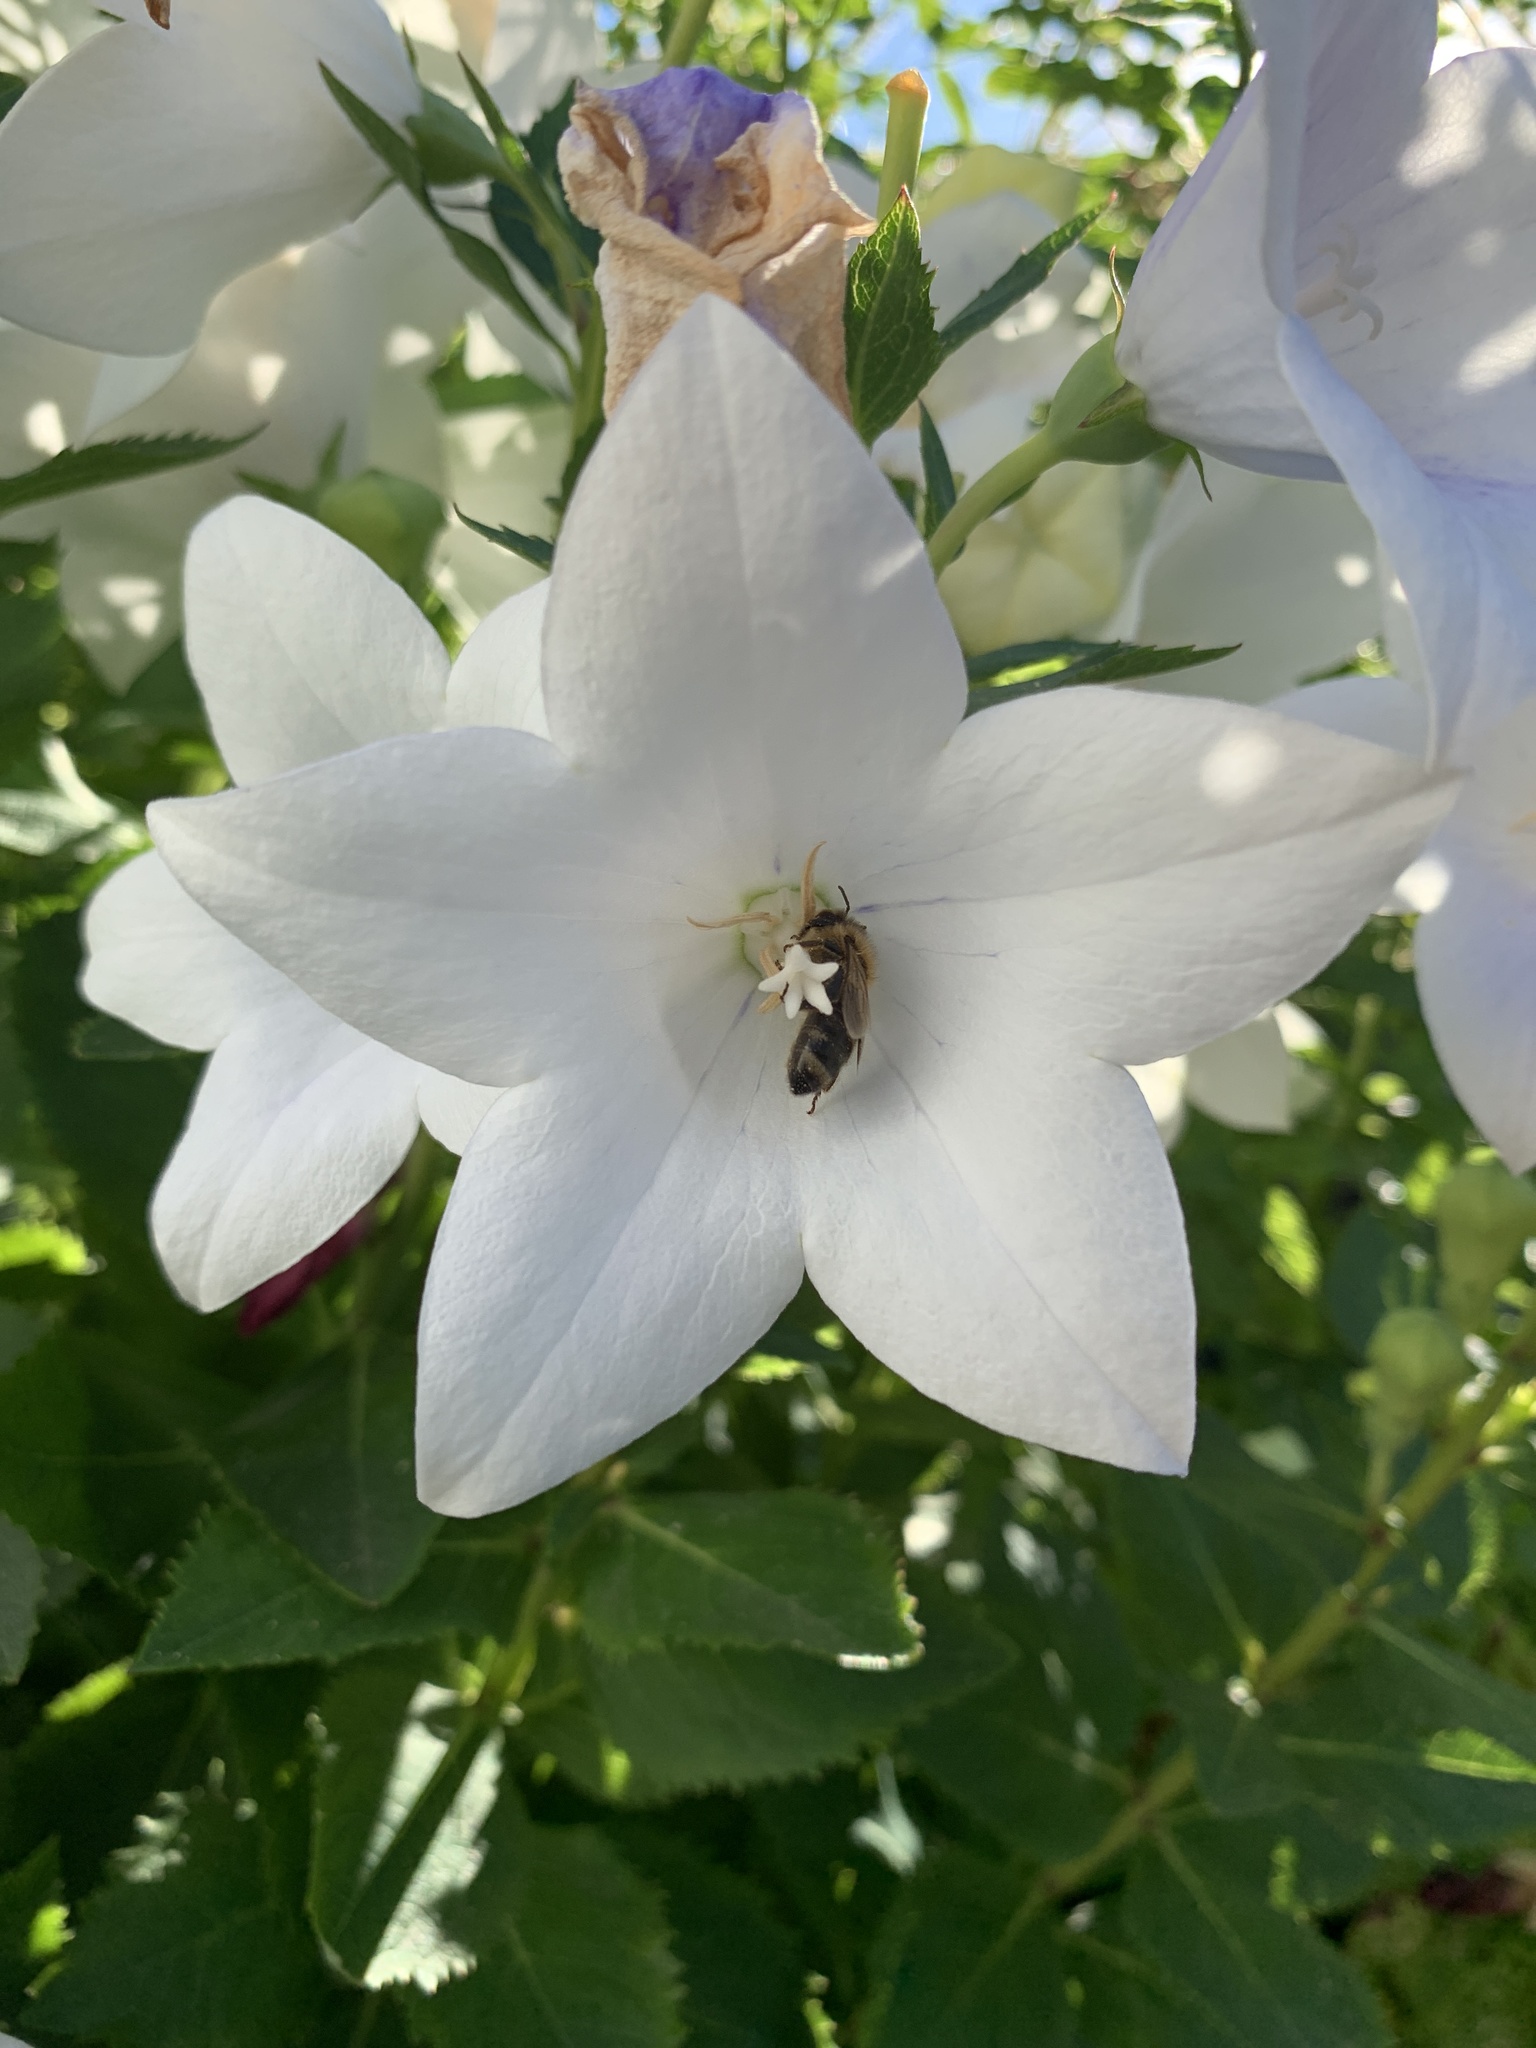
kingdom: Animalia
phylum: Arthropoda
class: Insecta
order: Hymenoptera
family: Apidae
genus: Apis
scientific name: Apis mellifera
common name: Honey bee
